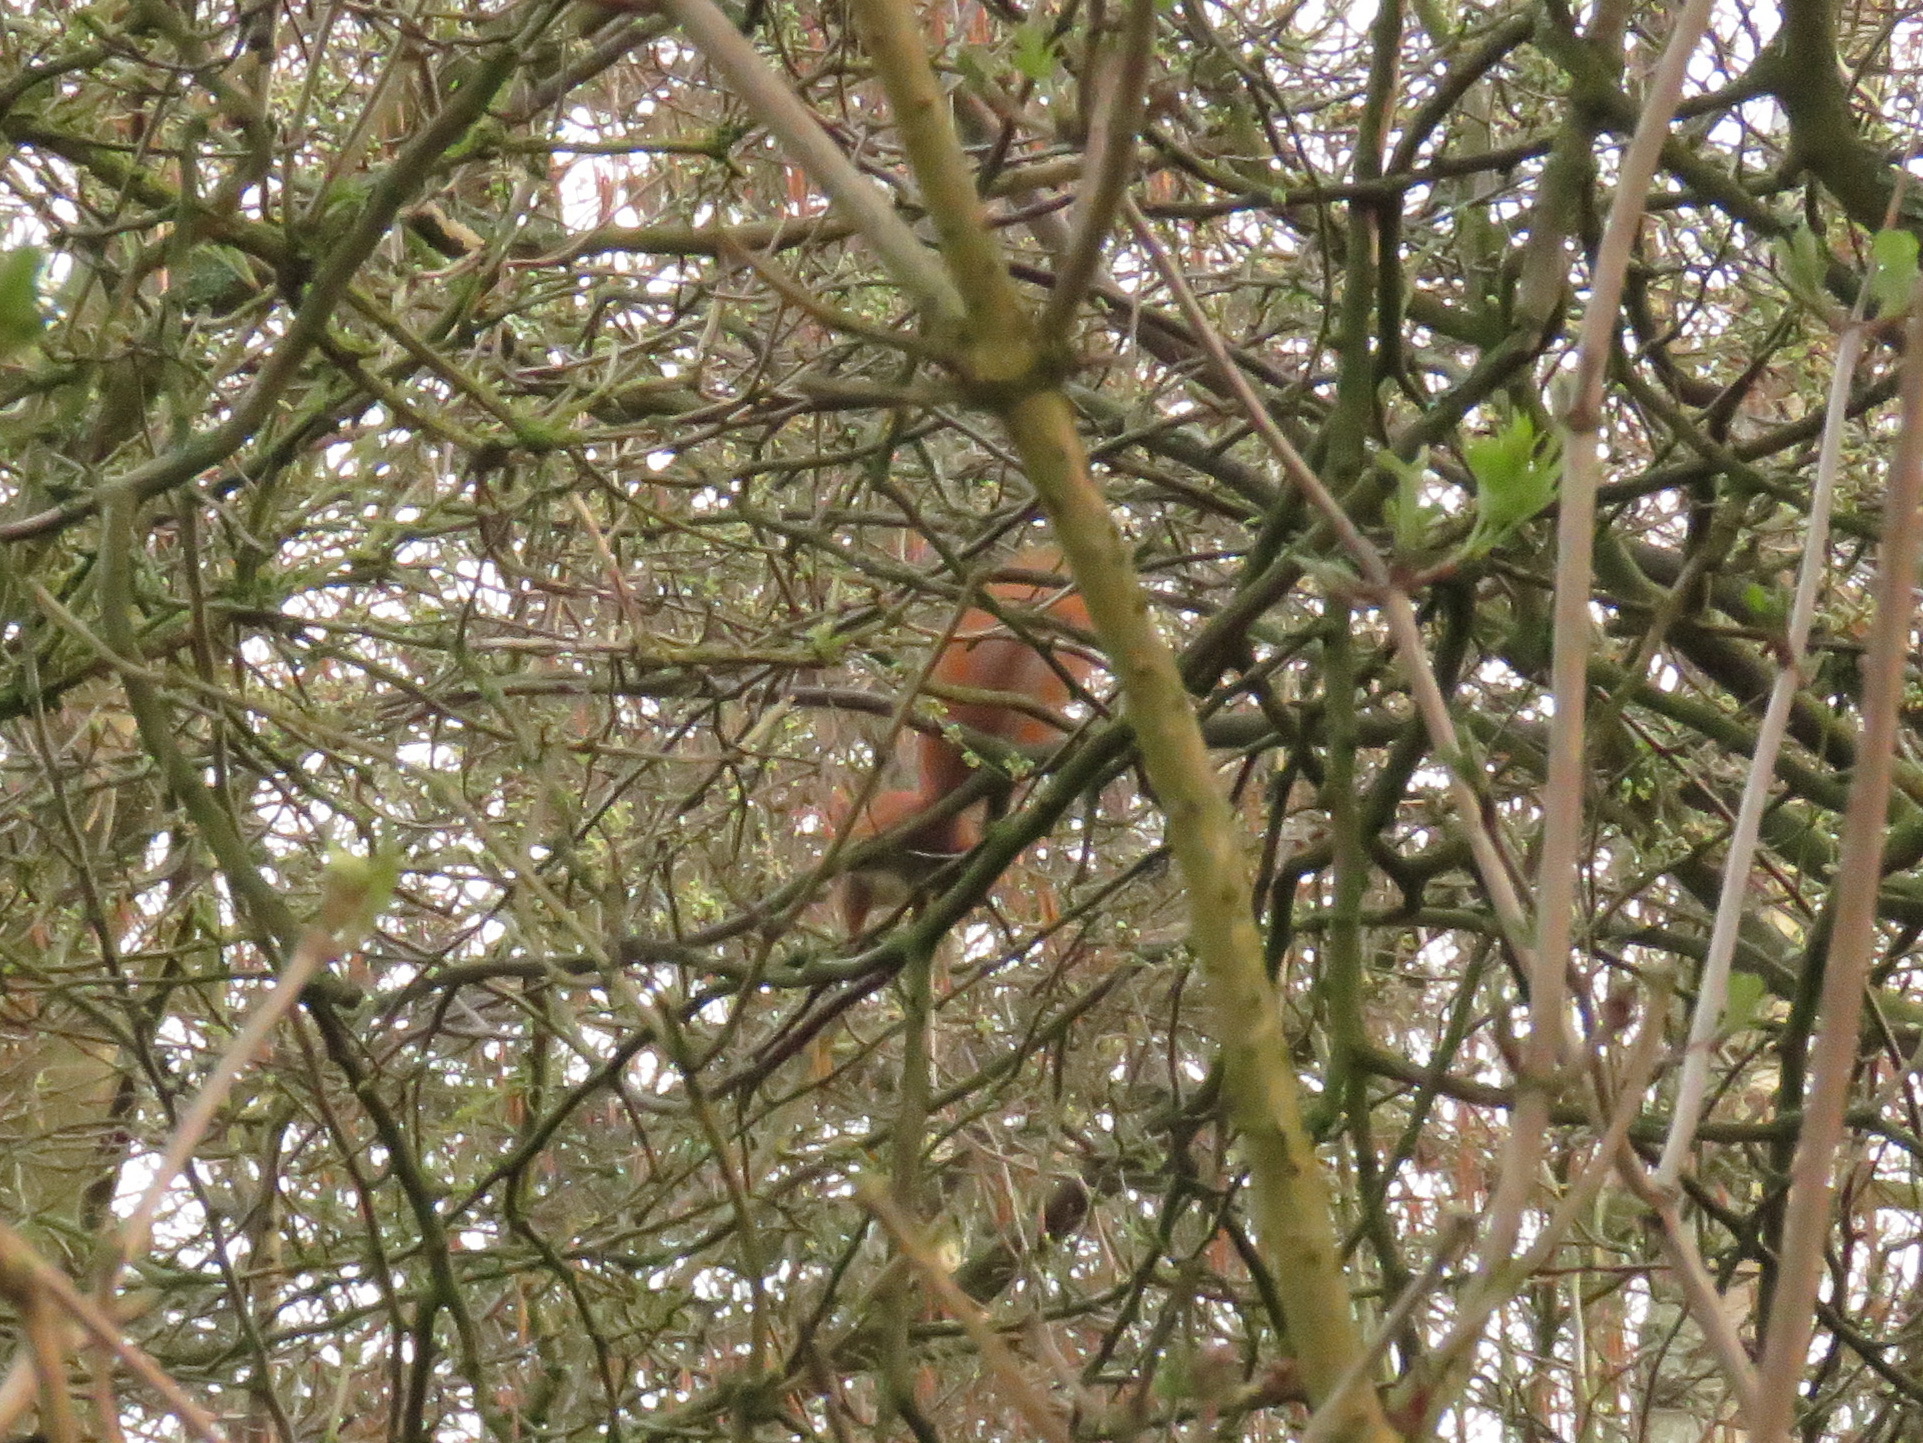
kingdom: Animalia
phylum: Chordata
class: Mammalia
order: Rodentia
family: Sciuridae
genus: Sciurus
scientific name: Sciurus vulgaris
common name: Eurasian red squirrel
